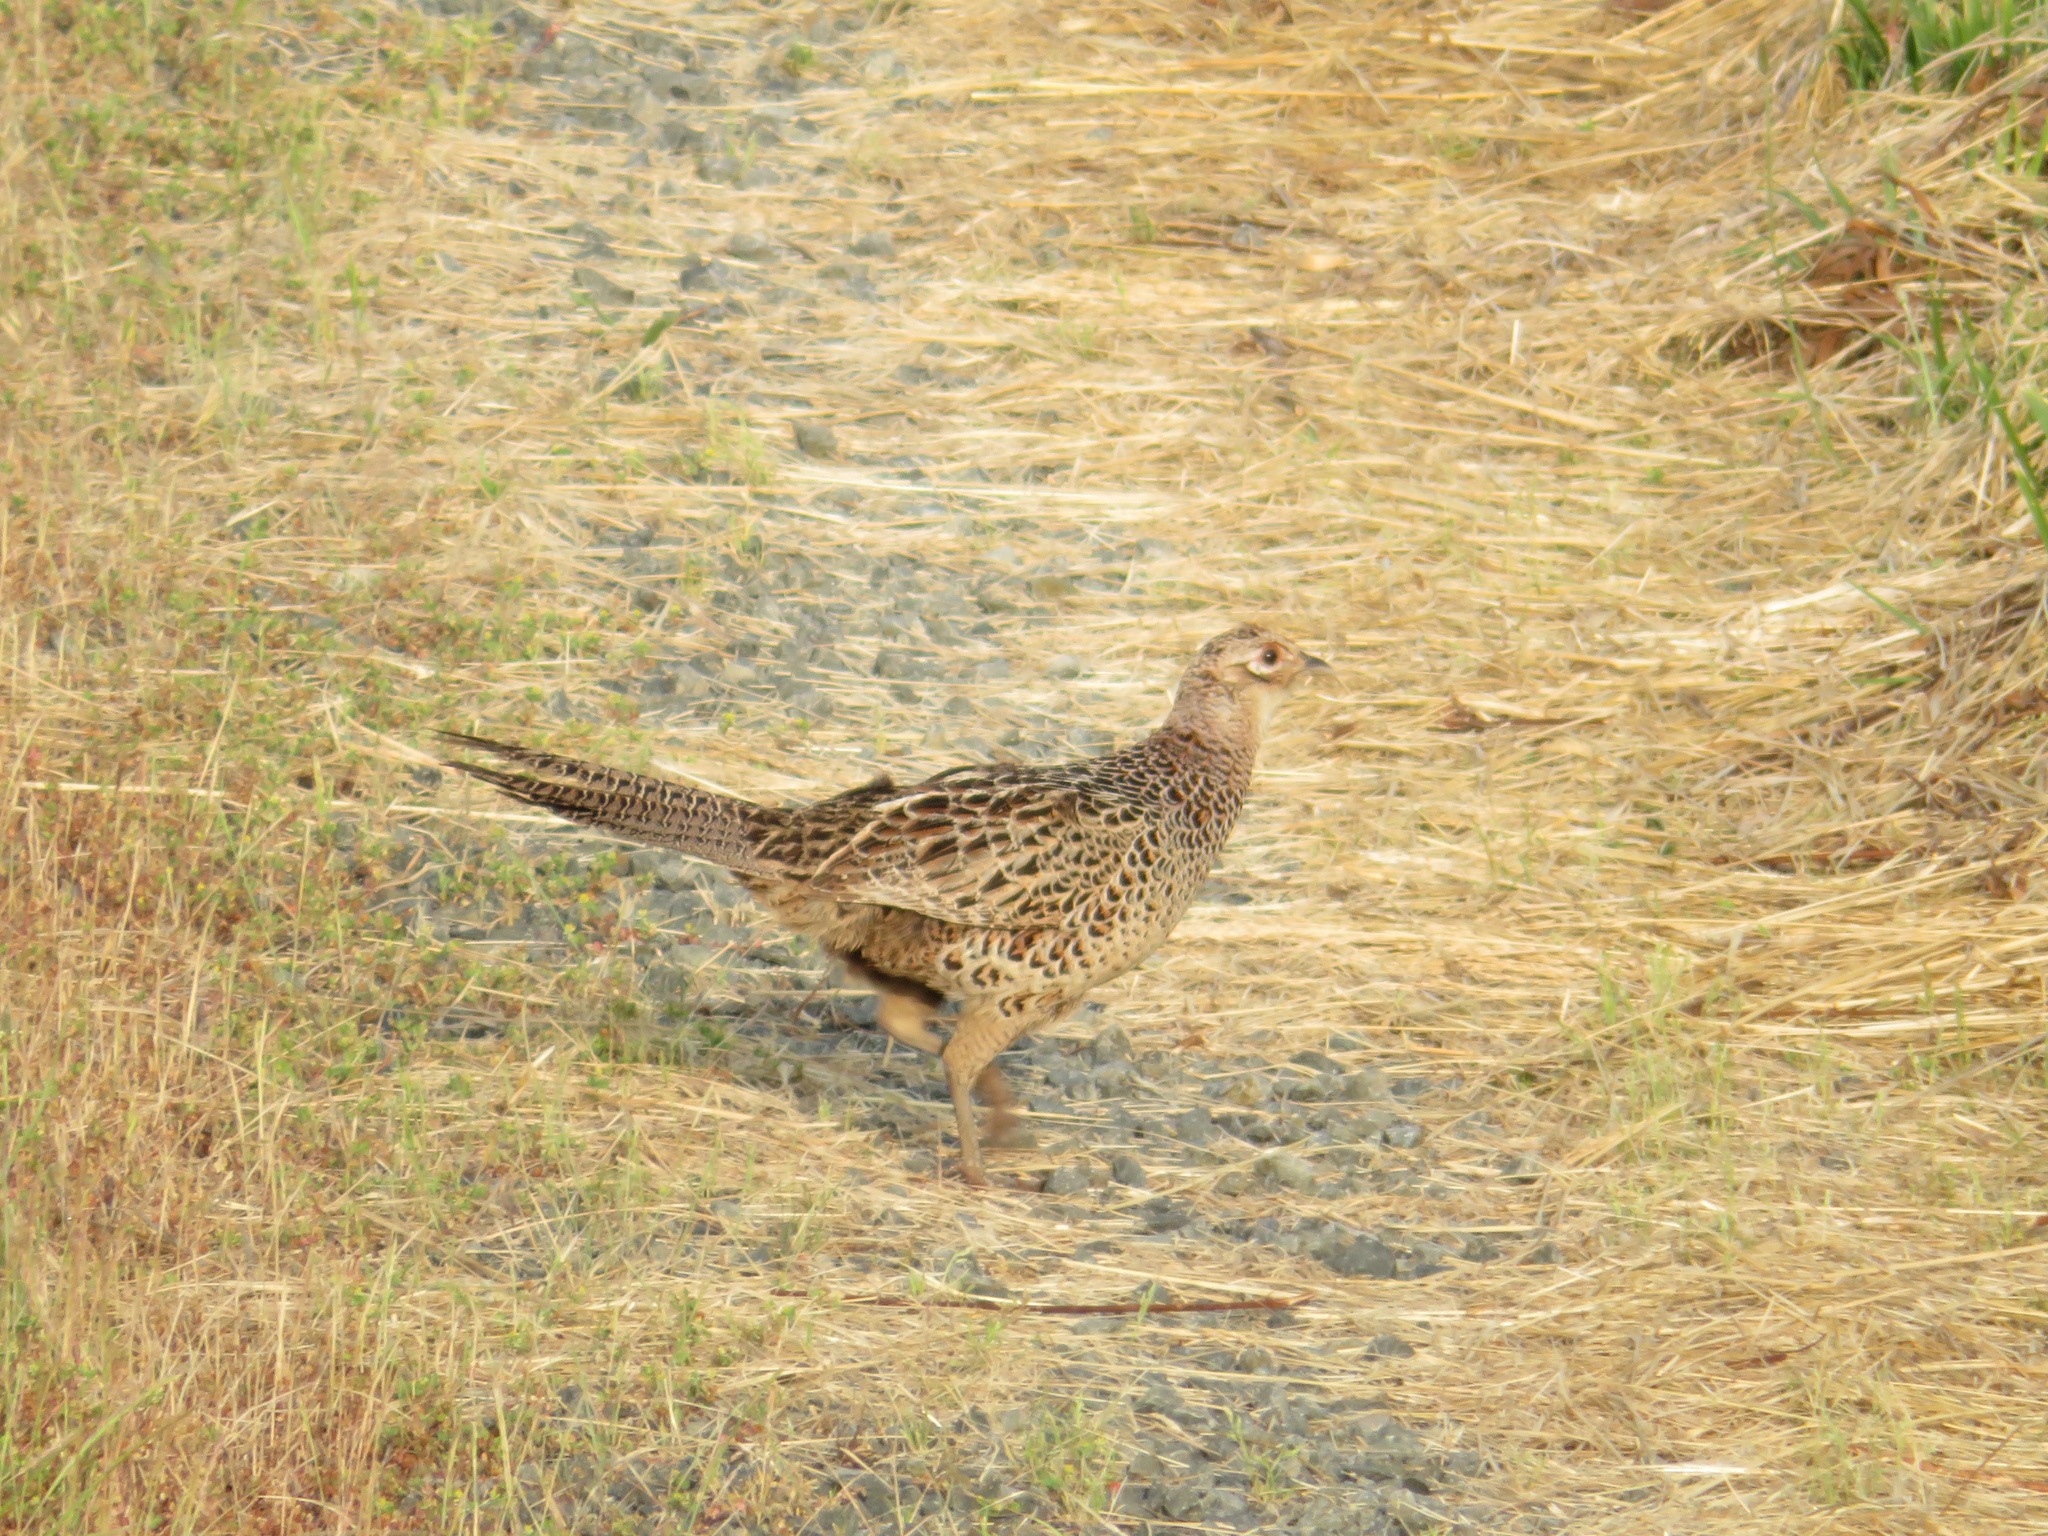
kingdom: Animalia
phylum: Chordata
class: Aves
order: Galliformes
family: Phasianidae
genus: Phasianus
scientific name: Phasianus versicolor
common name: Green pheasant
